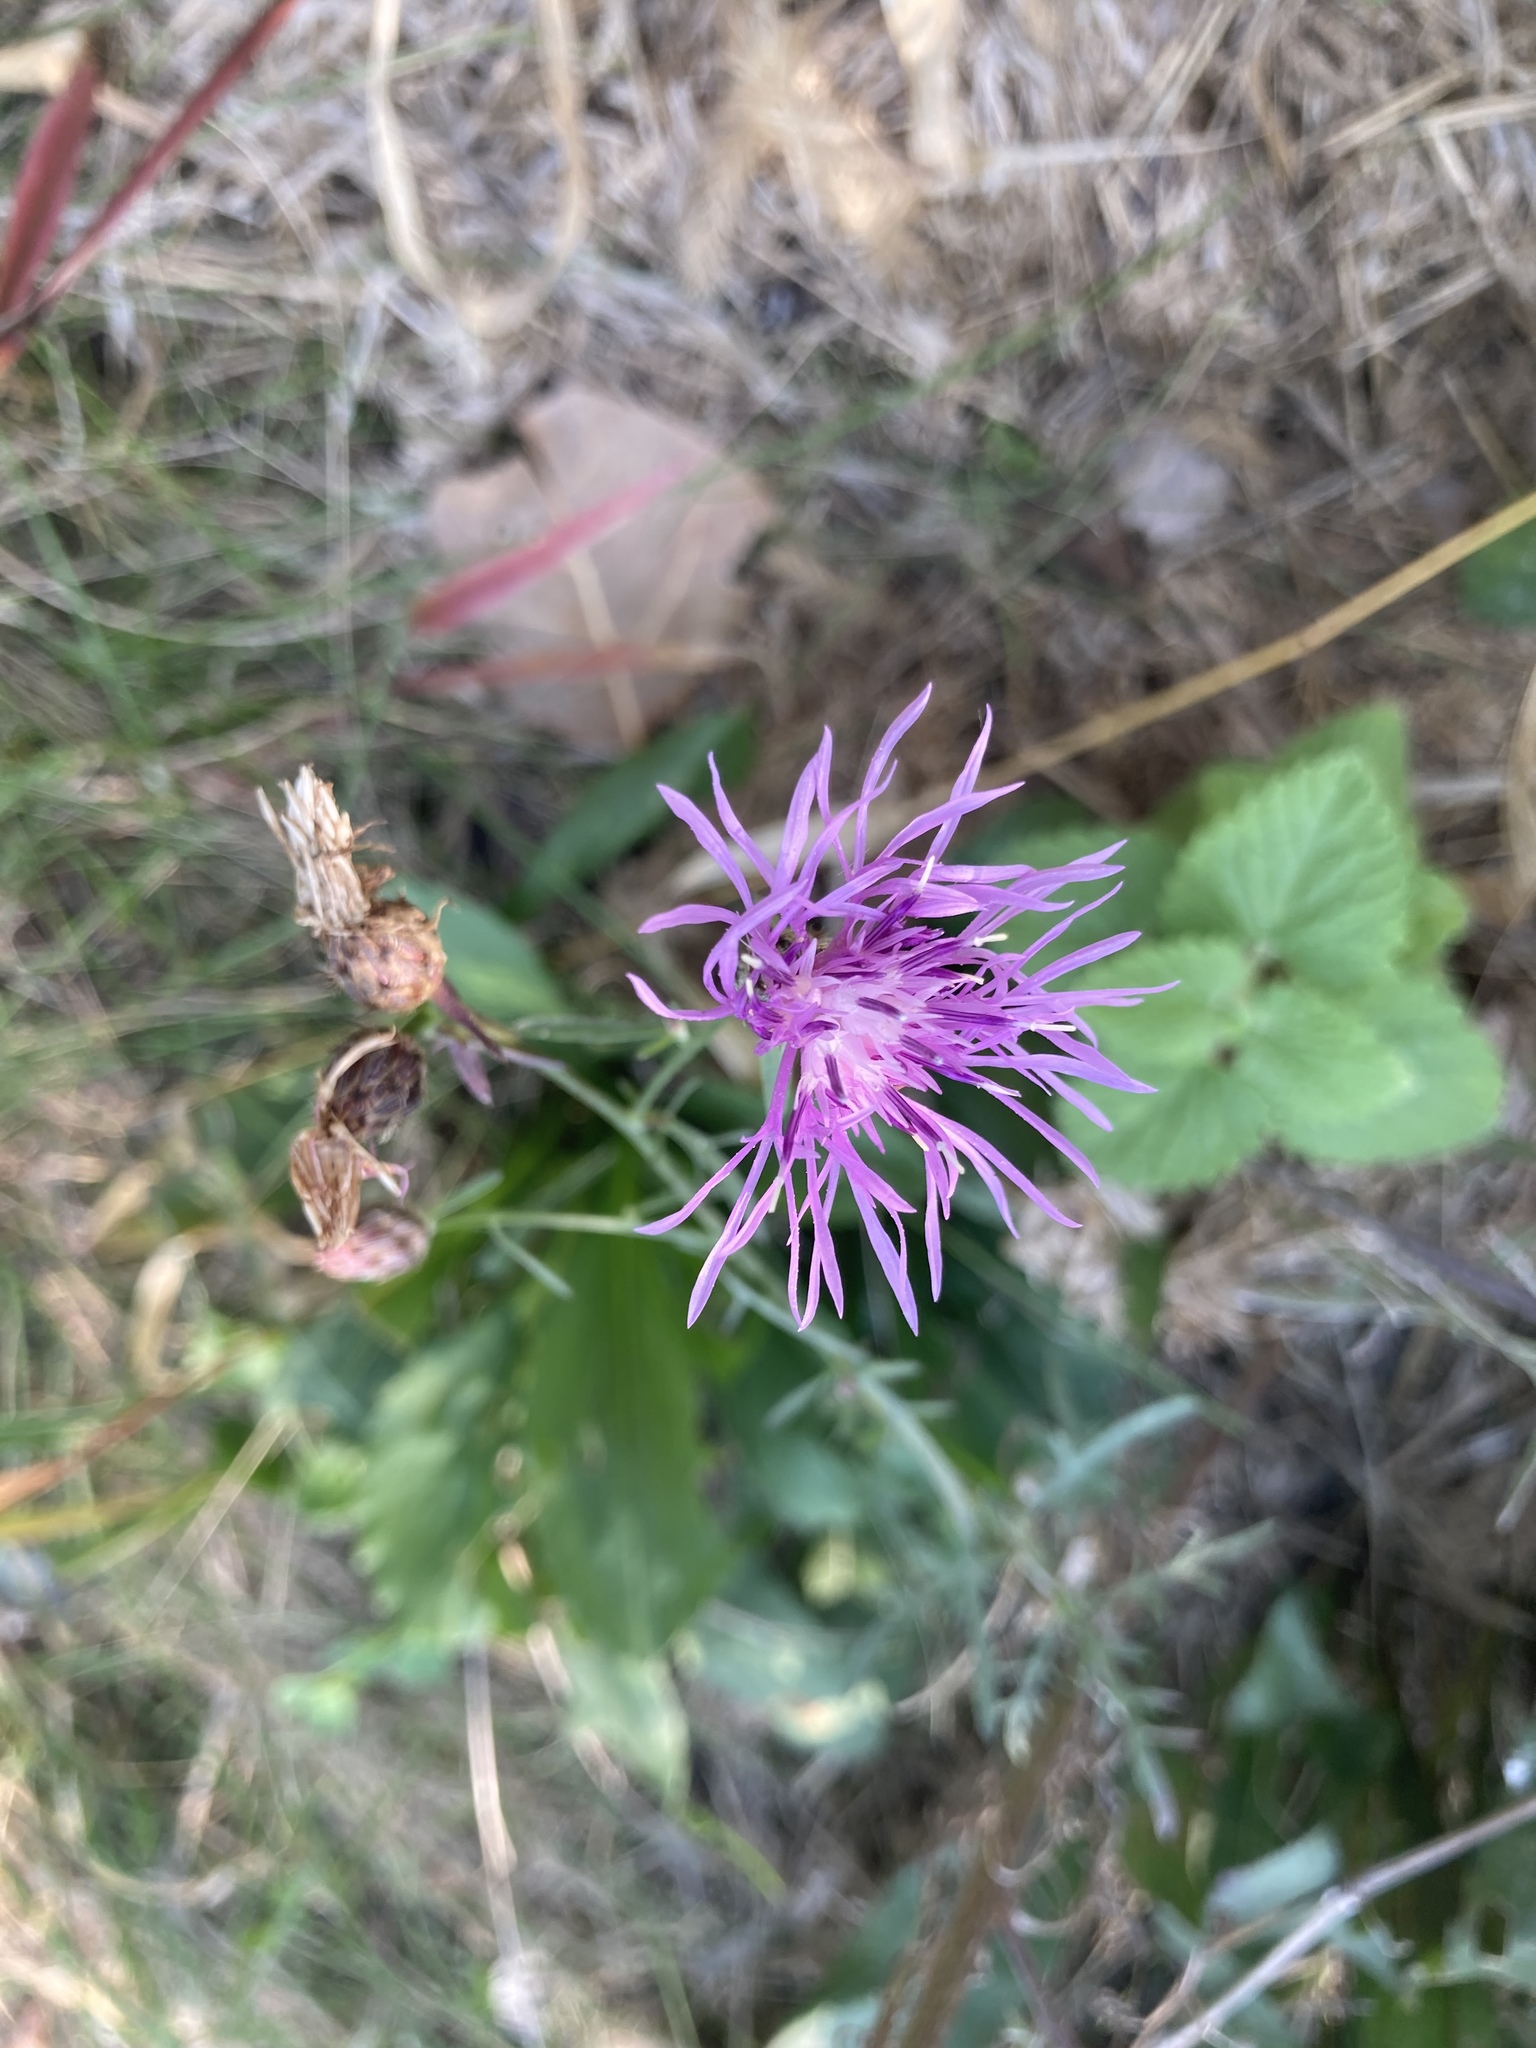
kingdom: Plantae
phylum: Tracheophyta
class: Magnoliopsida
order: Asterales
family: Asteraceae
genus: Centaurea
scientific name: Centaurea stoebe
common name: Spotted knapweed
